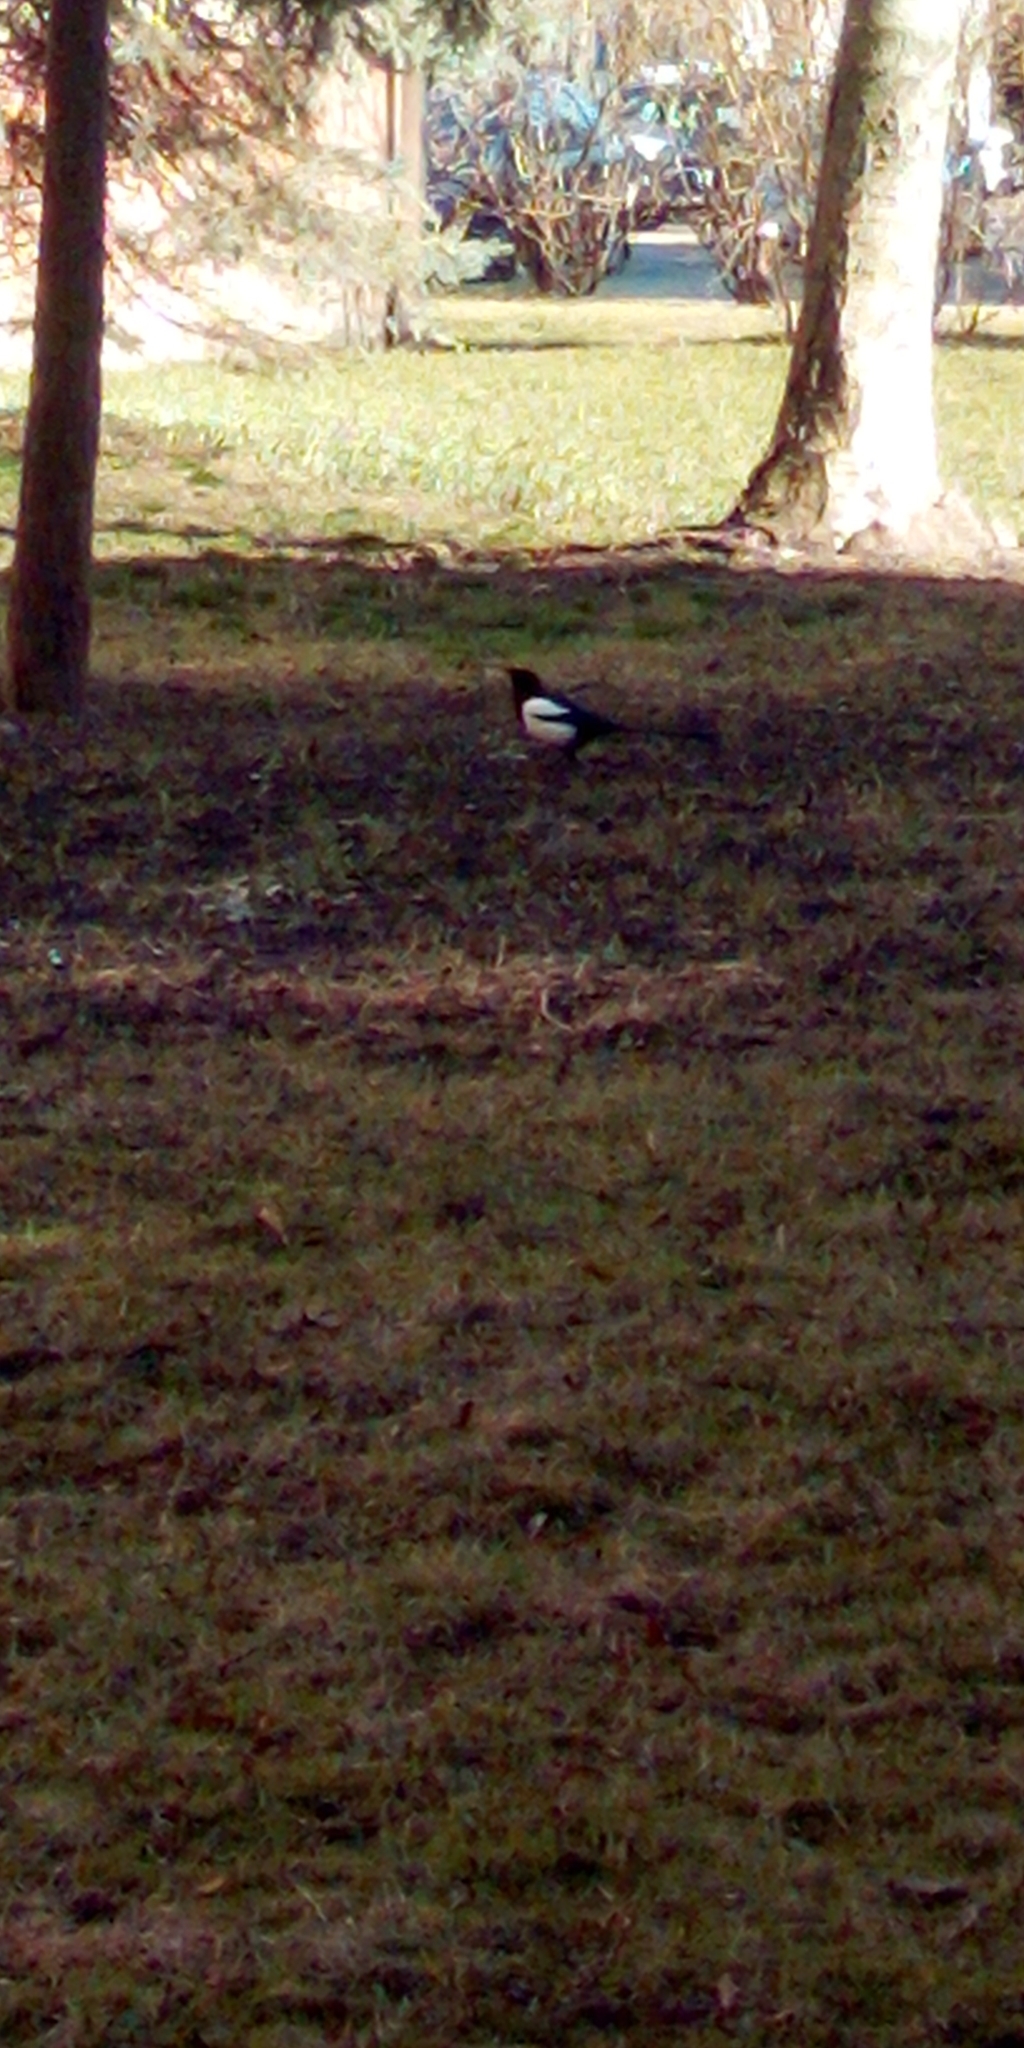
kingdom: Animalia
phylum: Chordata
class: Aves
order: Passeriformes
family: Corvidae
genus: Pica
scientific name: Pica pica
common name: Eurasian magpie
